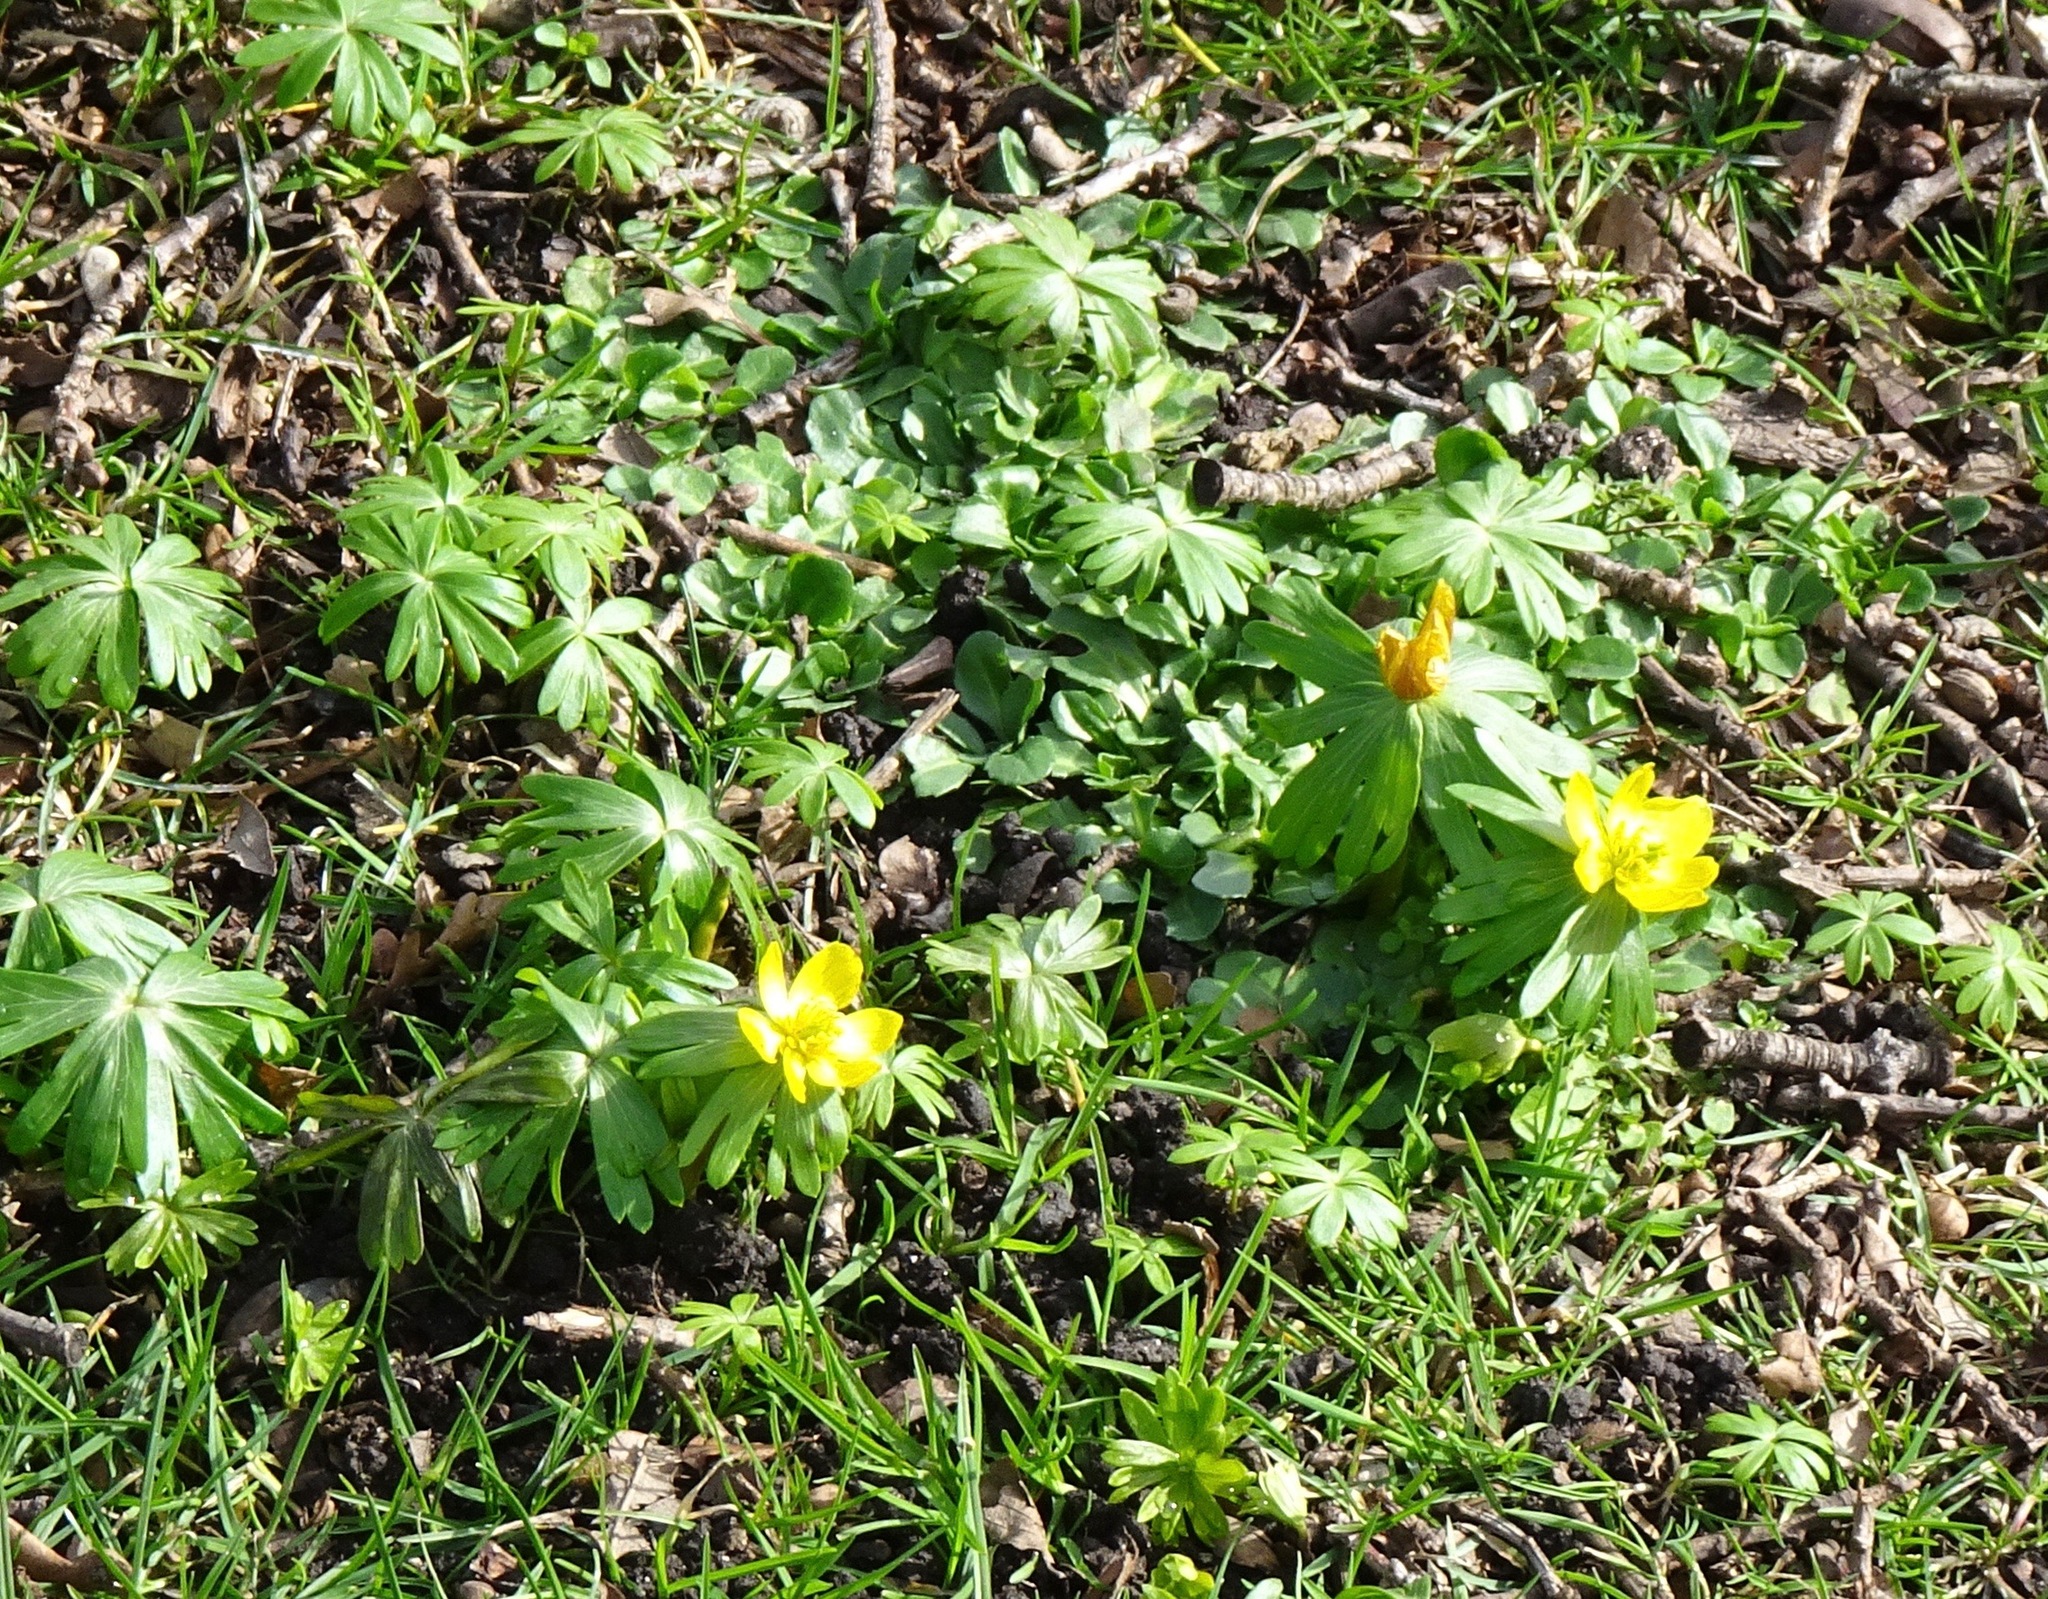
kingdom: Plantae
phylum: Tracheophyta
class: Magnoliopsida
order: Ranunculales
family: Ranunculaceae
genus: Eranthis
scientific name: Eranthis hyemalis
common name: Winter aconite
